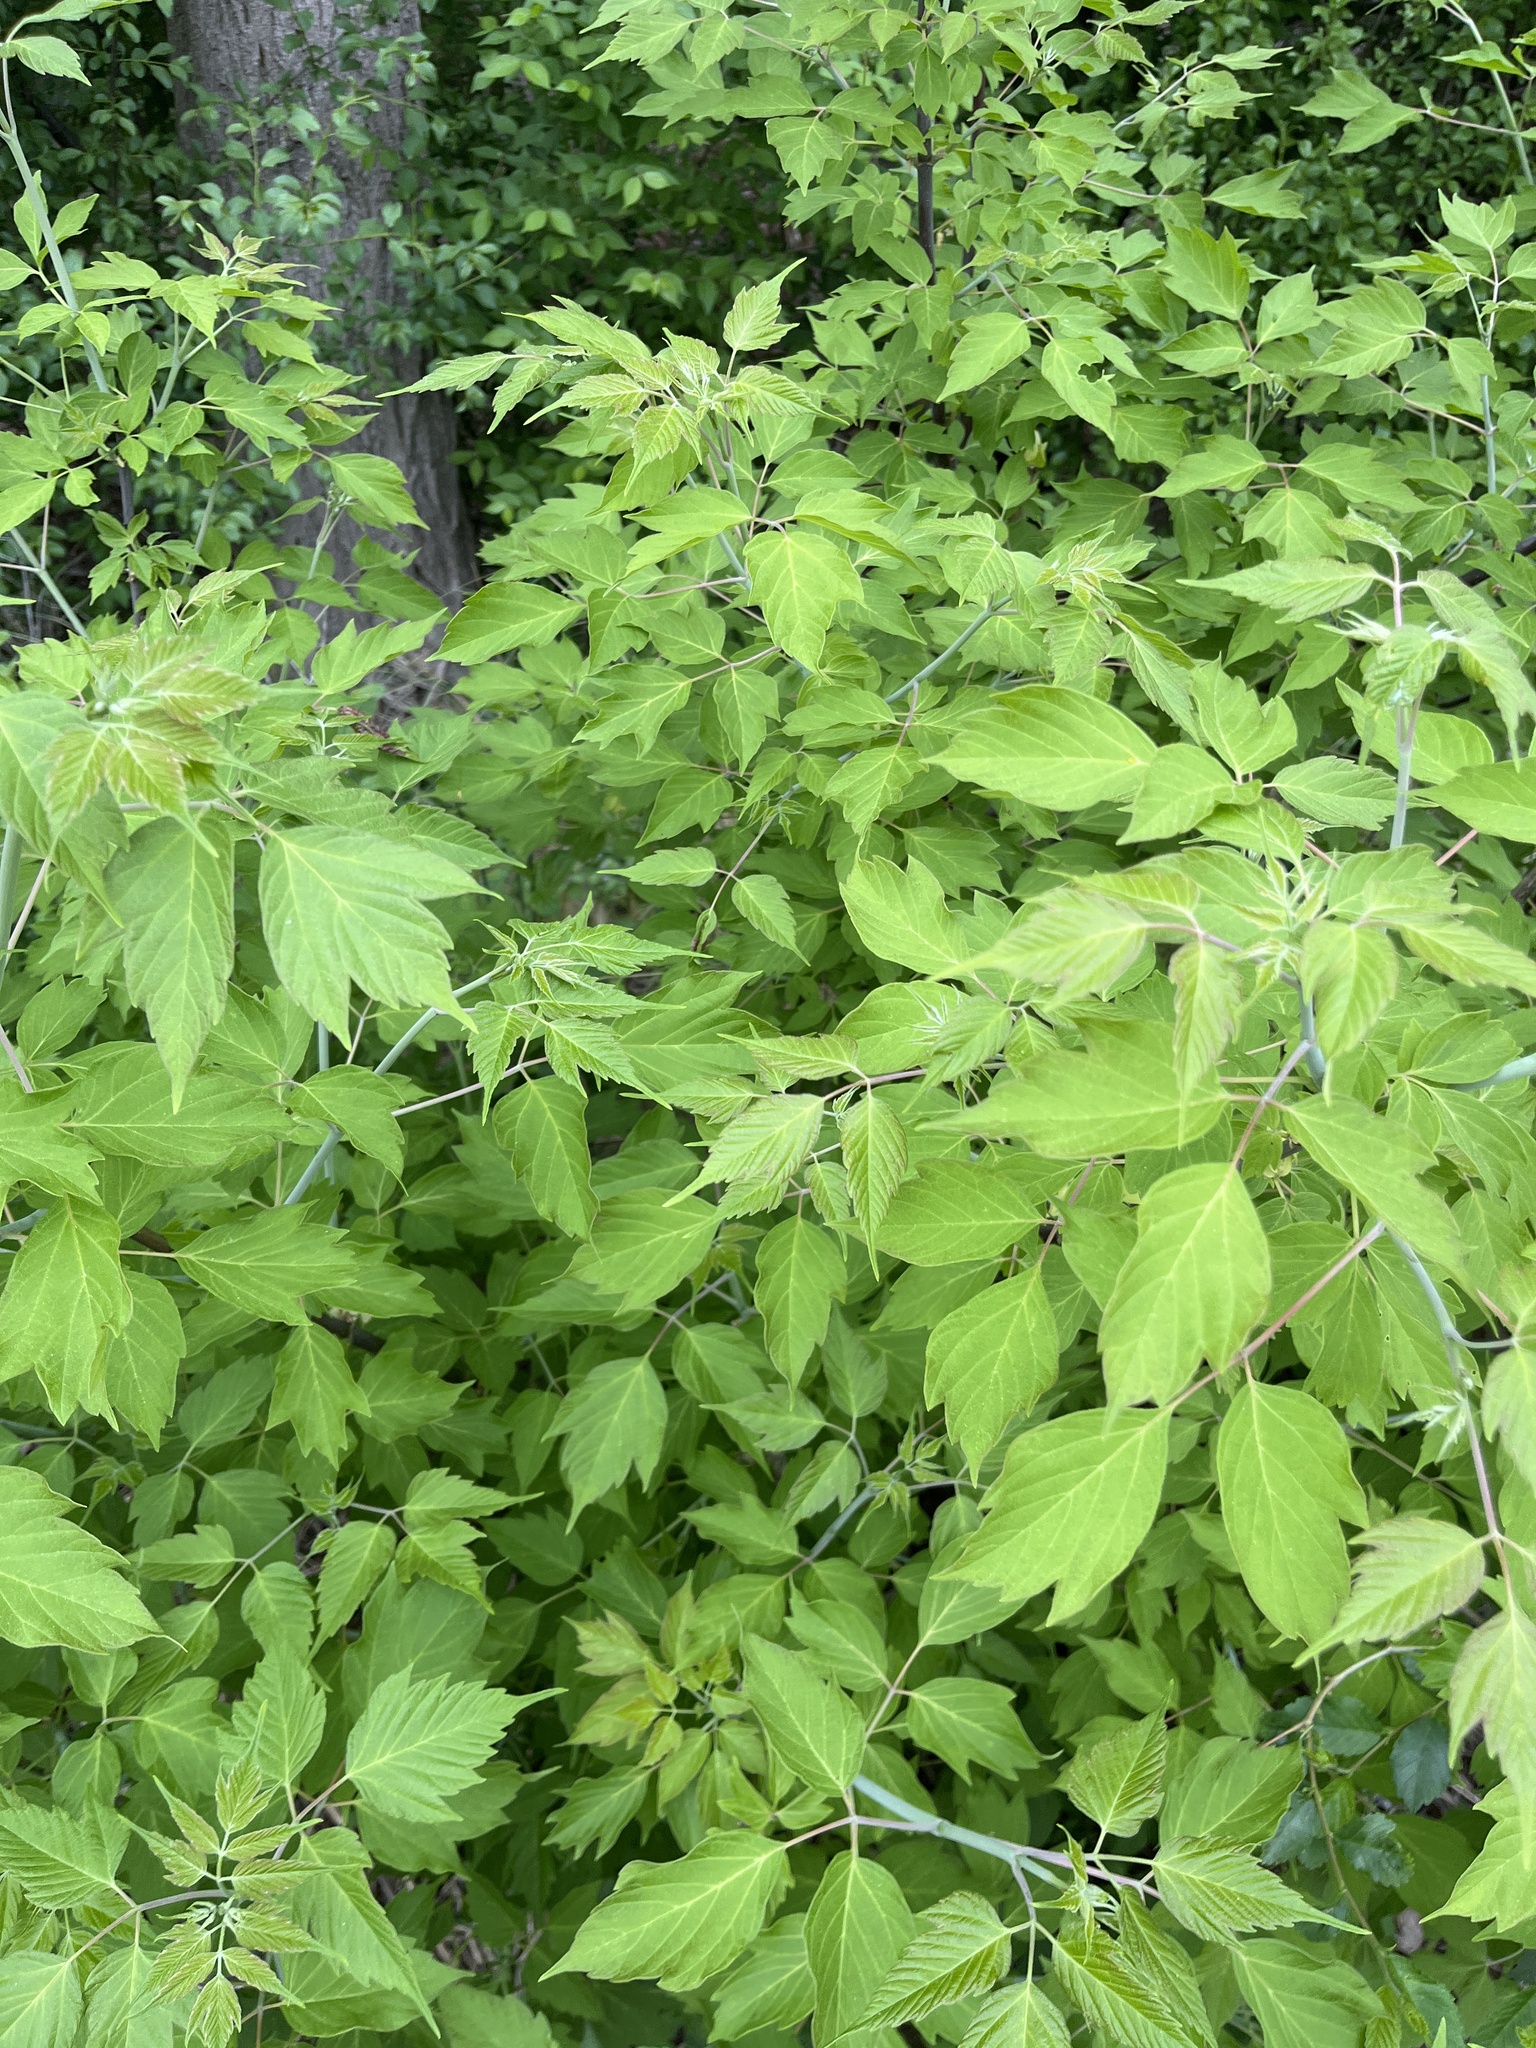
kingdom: Plantae
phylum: Tracheophyta
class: Magnoliopsida
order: Sapindales
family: Sapindaceae
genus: Acer
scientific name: Acer negundo
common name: Ashleaf maple
